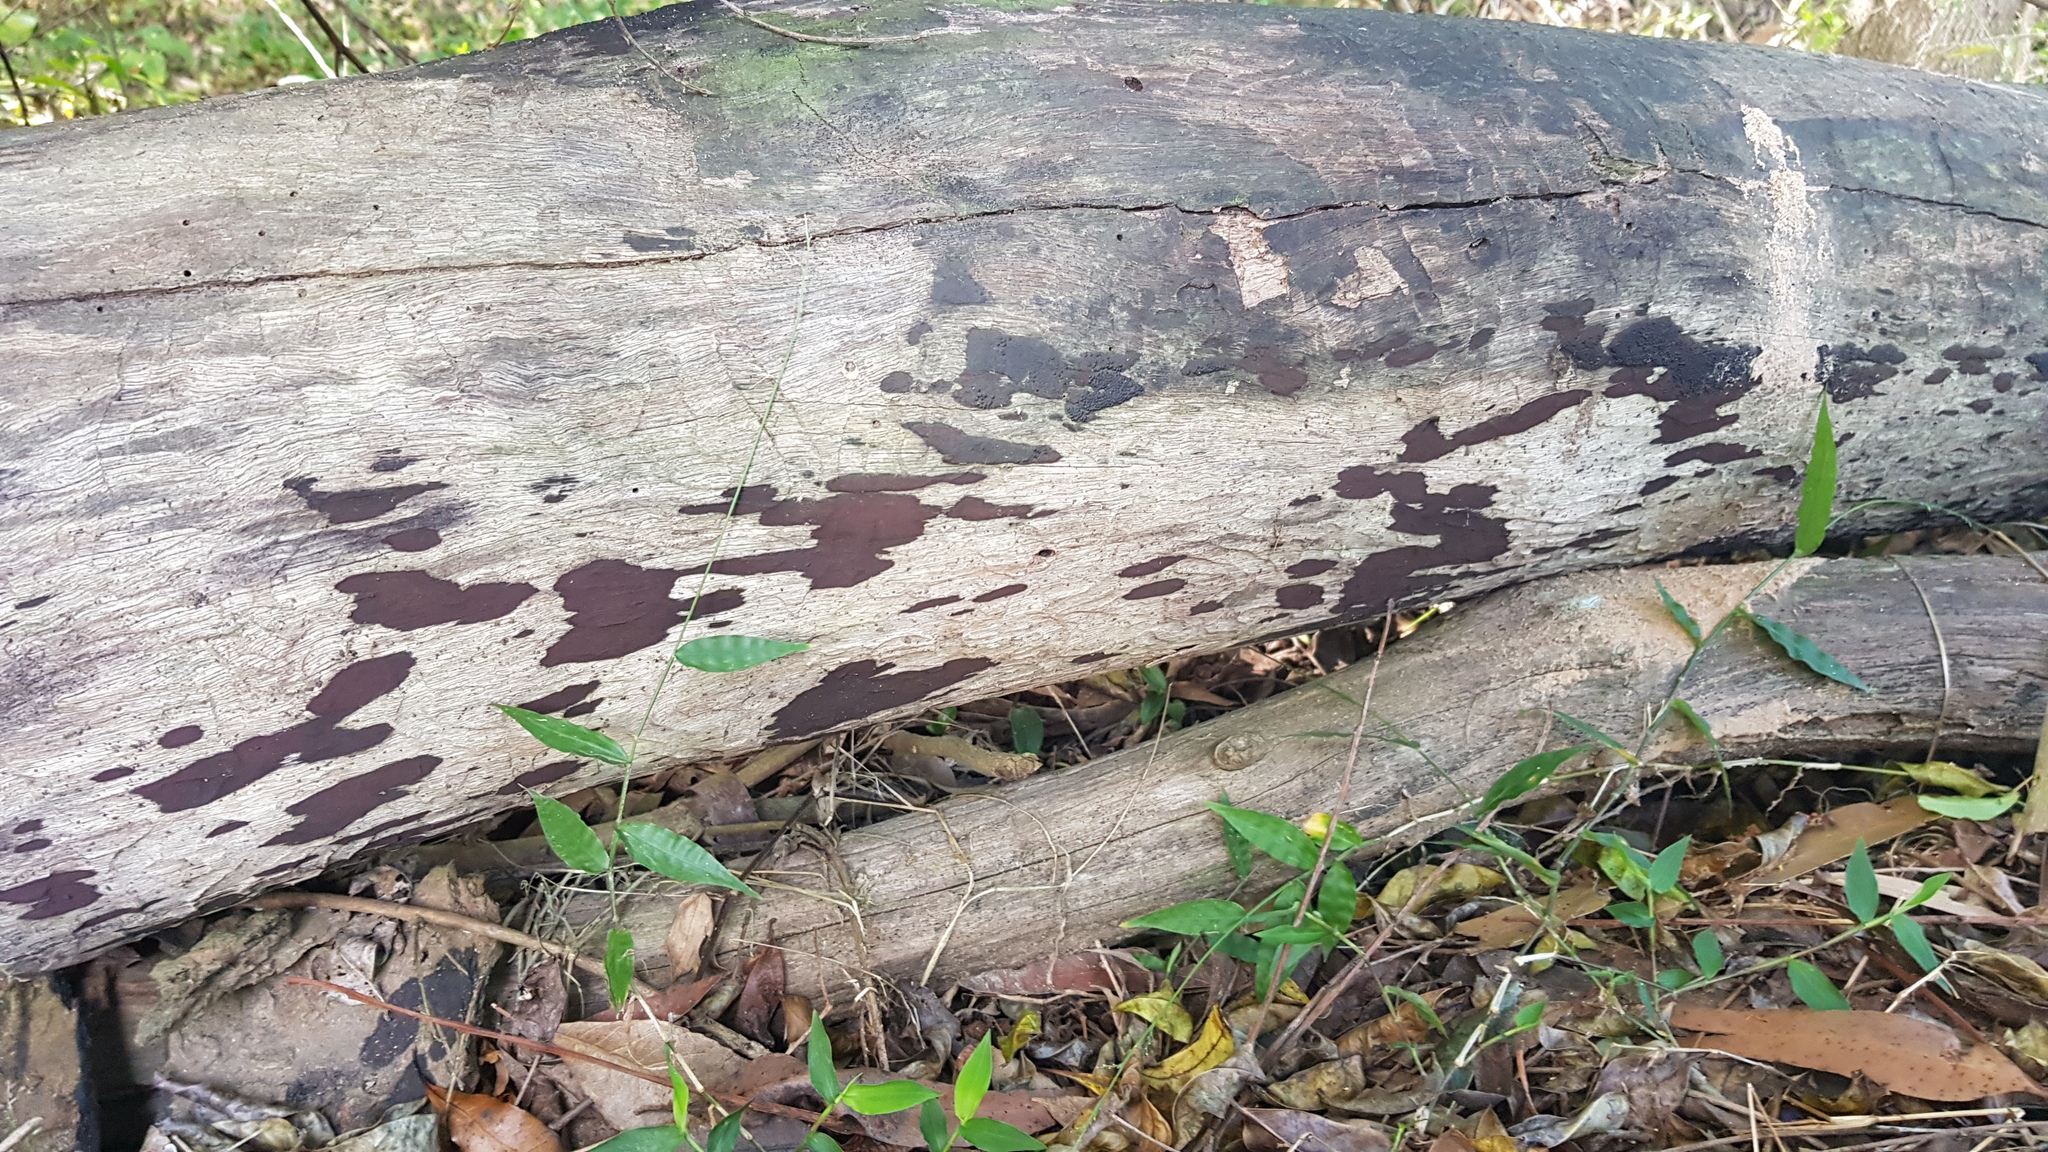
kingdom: Fungi
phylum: Ascomycota
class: Sordariomycetes
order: Xylariales
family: Hypoxylaceae
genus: Annulohypoxylon
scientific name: Annulohypoxylon bovei
